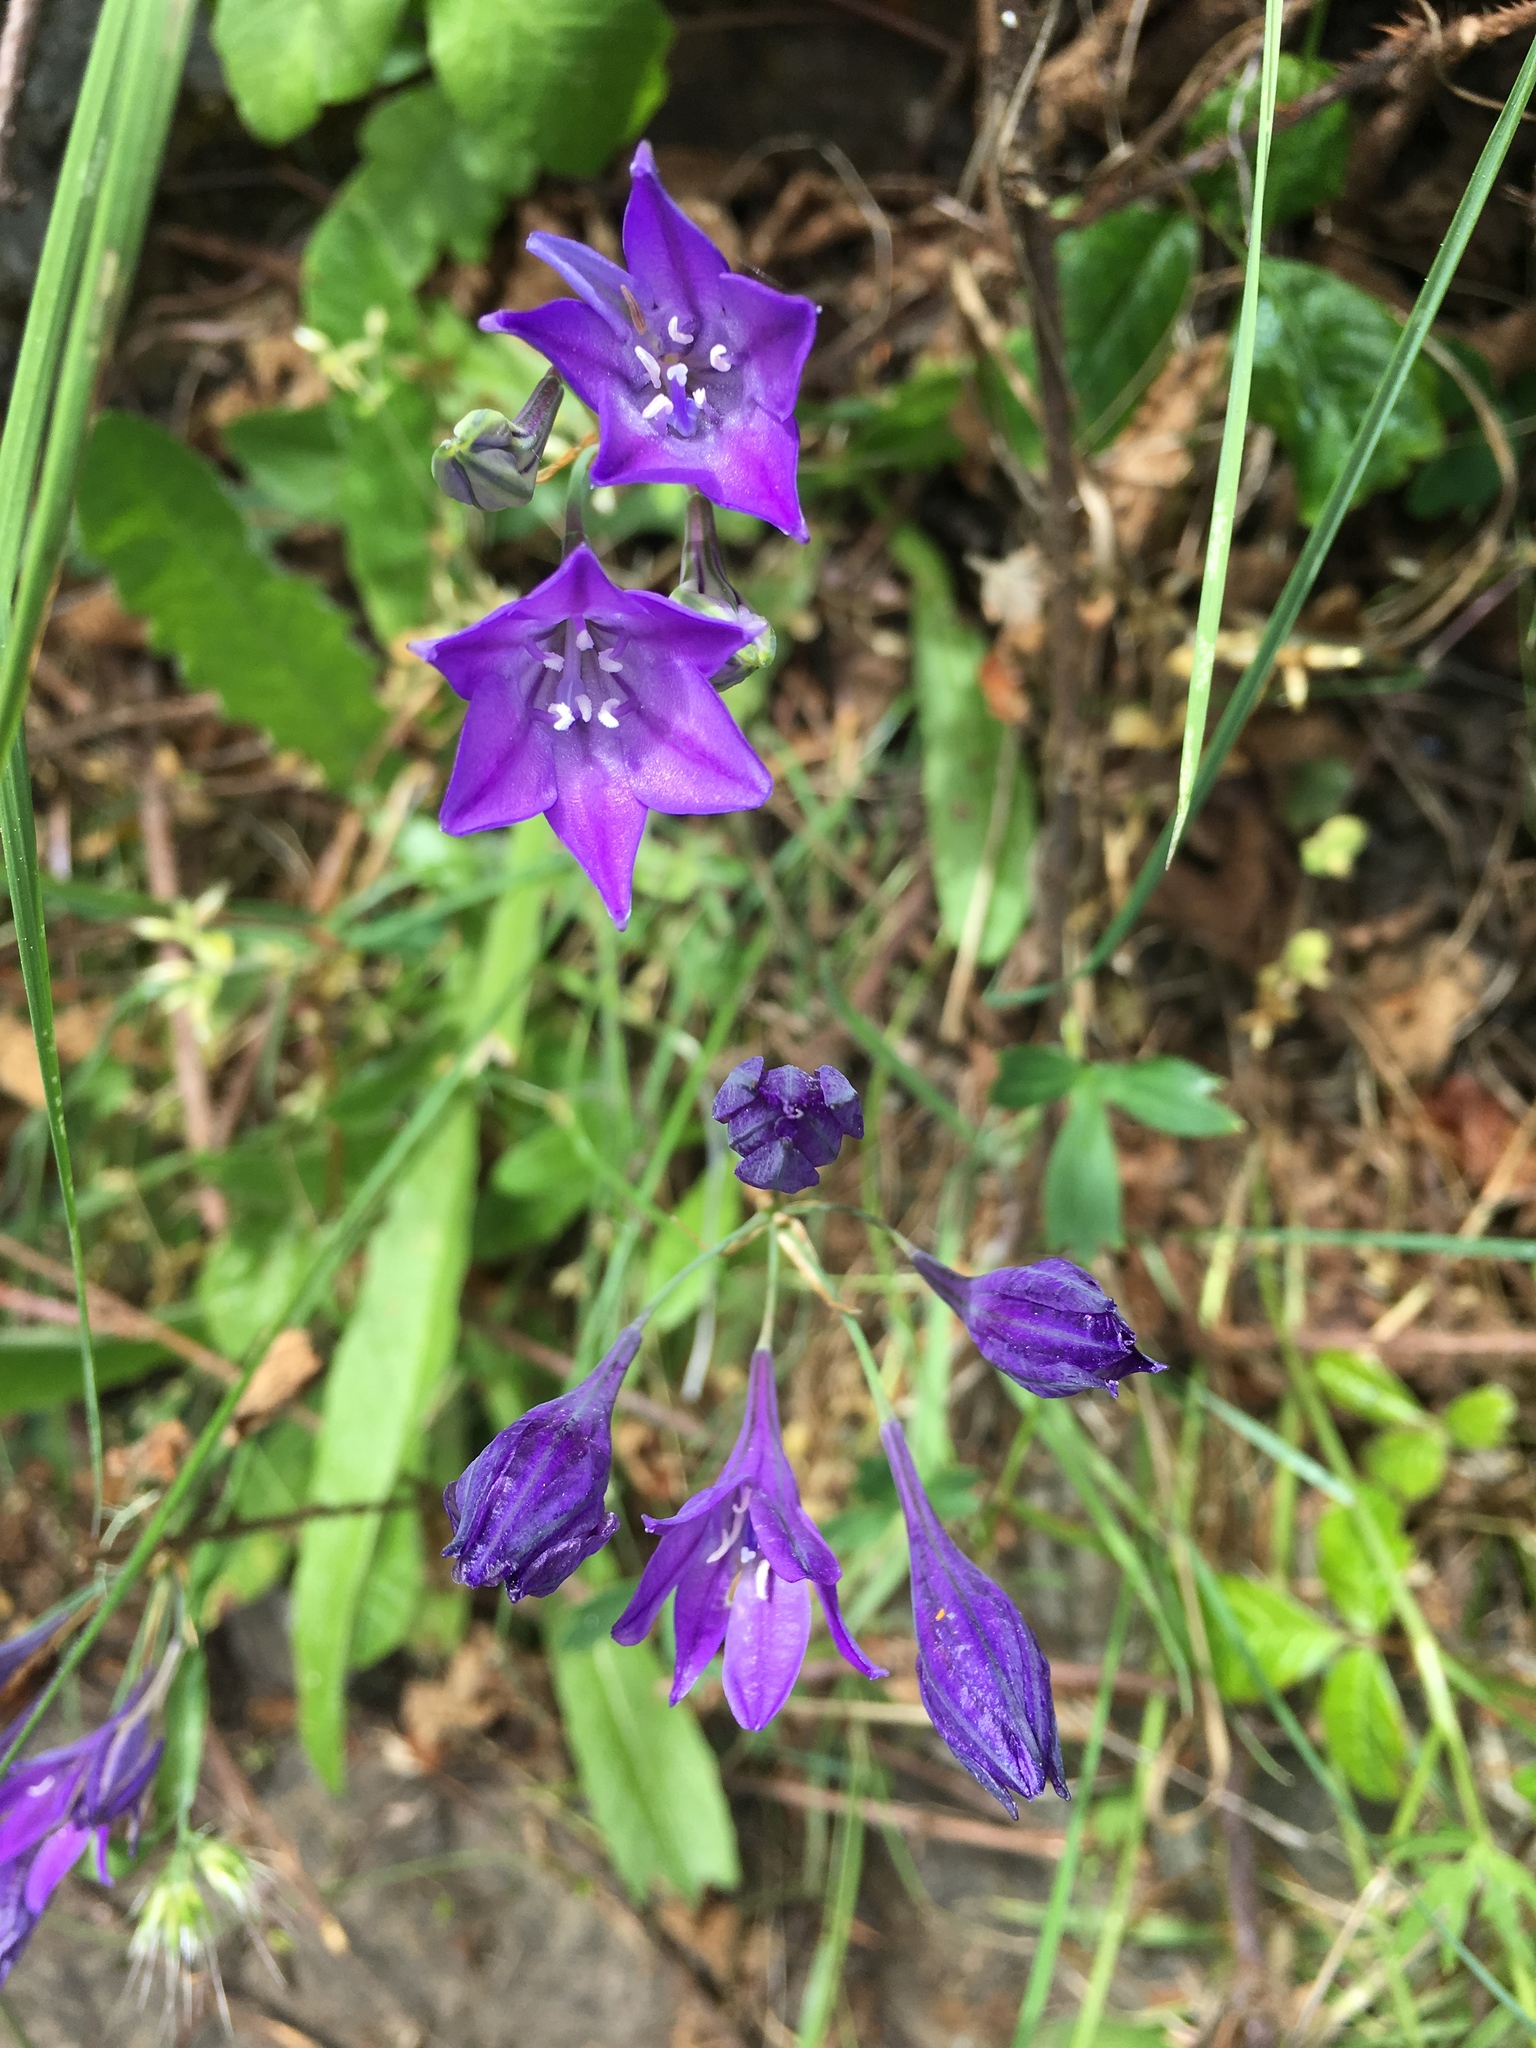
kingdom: Plantae
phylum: Tracheophyta
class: Liliopsida
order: Asparagales
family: Asparagaceae
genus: Triteleia
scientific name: Triteleia laxa
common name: Triplet-lily
